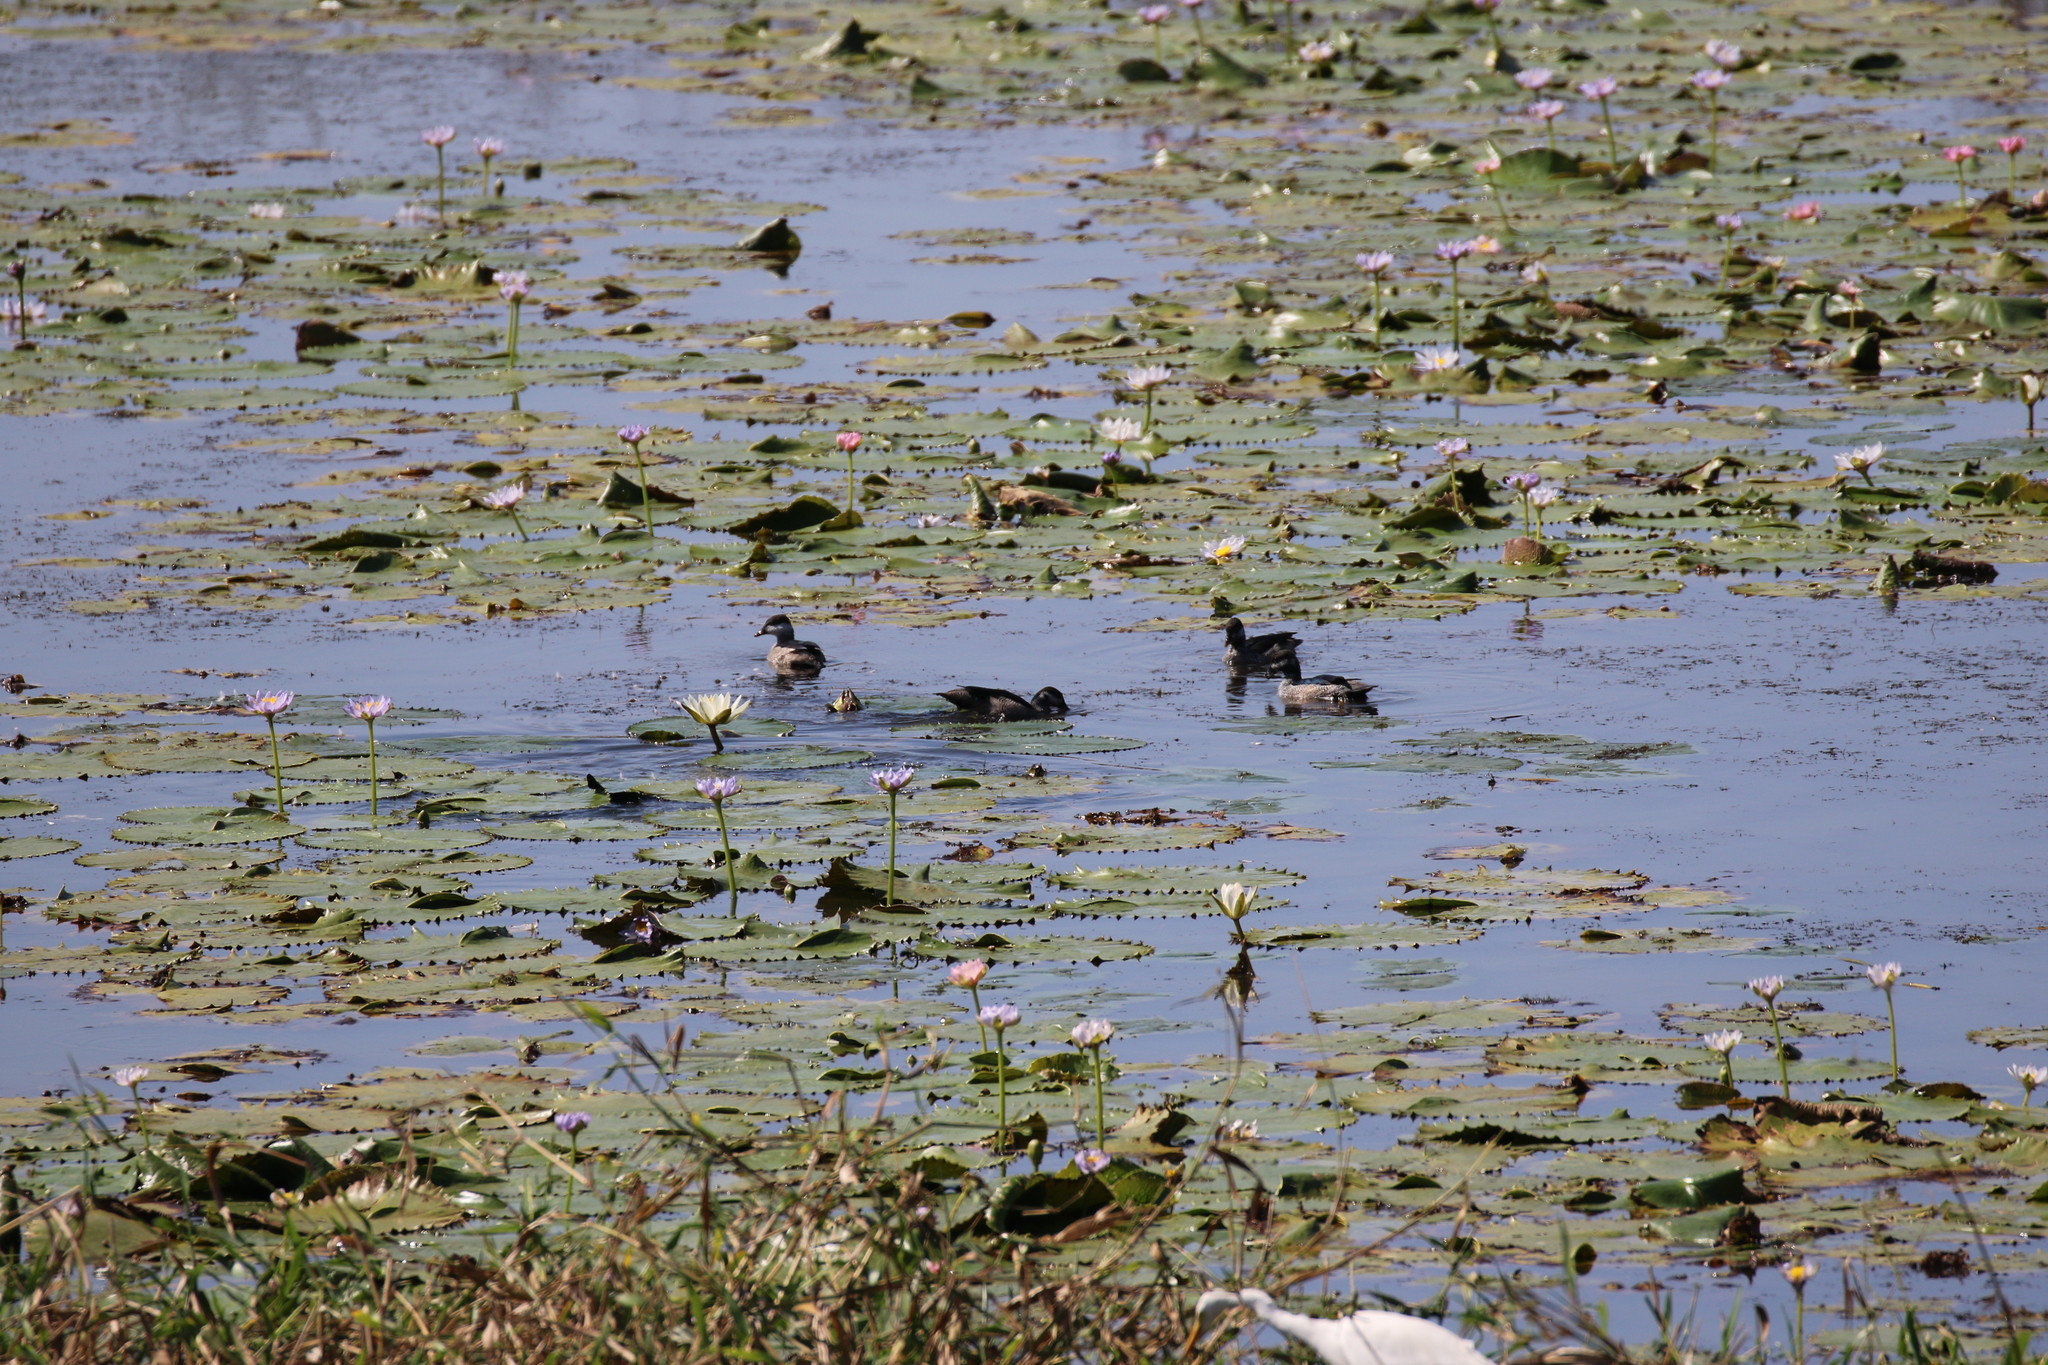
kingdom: Animalia
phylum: Chordata
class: Aves
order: Anseriformes
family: Anatidae
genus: Nettapus
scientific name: Nettapus pulchellus
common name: Green pygmy-goose
